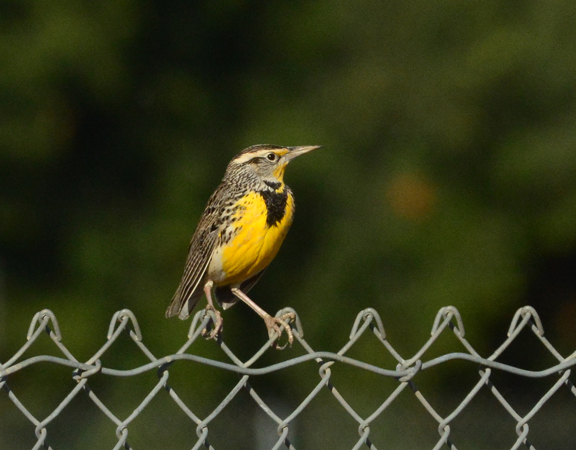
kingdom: Animalia
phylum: Chordata
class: Aves
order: Passeriformes
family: Icteridae
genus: Sturnella
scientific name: Sturnella neglecta
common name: Western meadowlark
